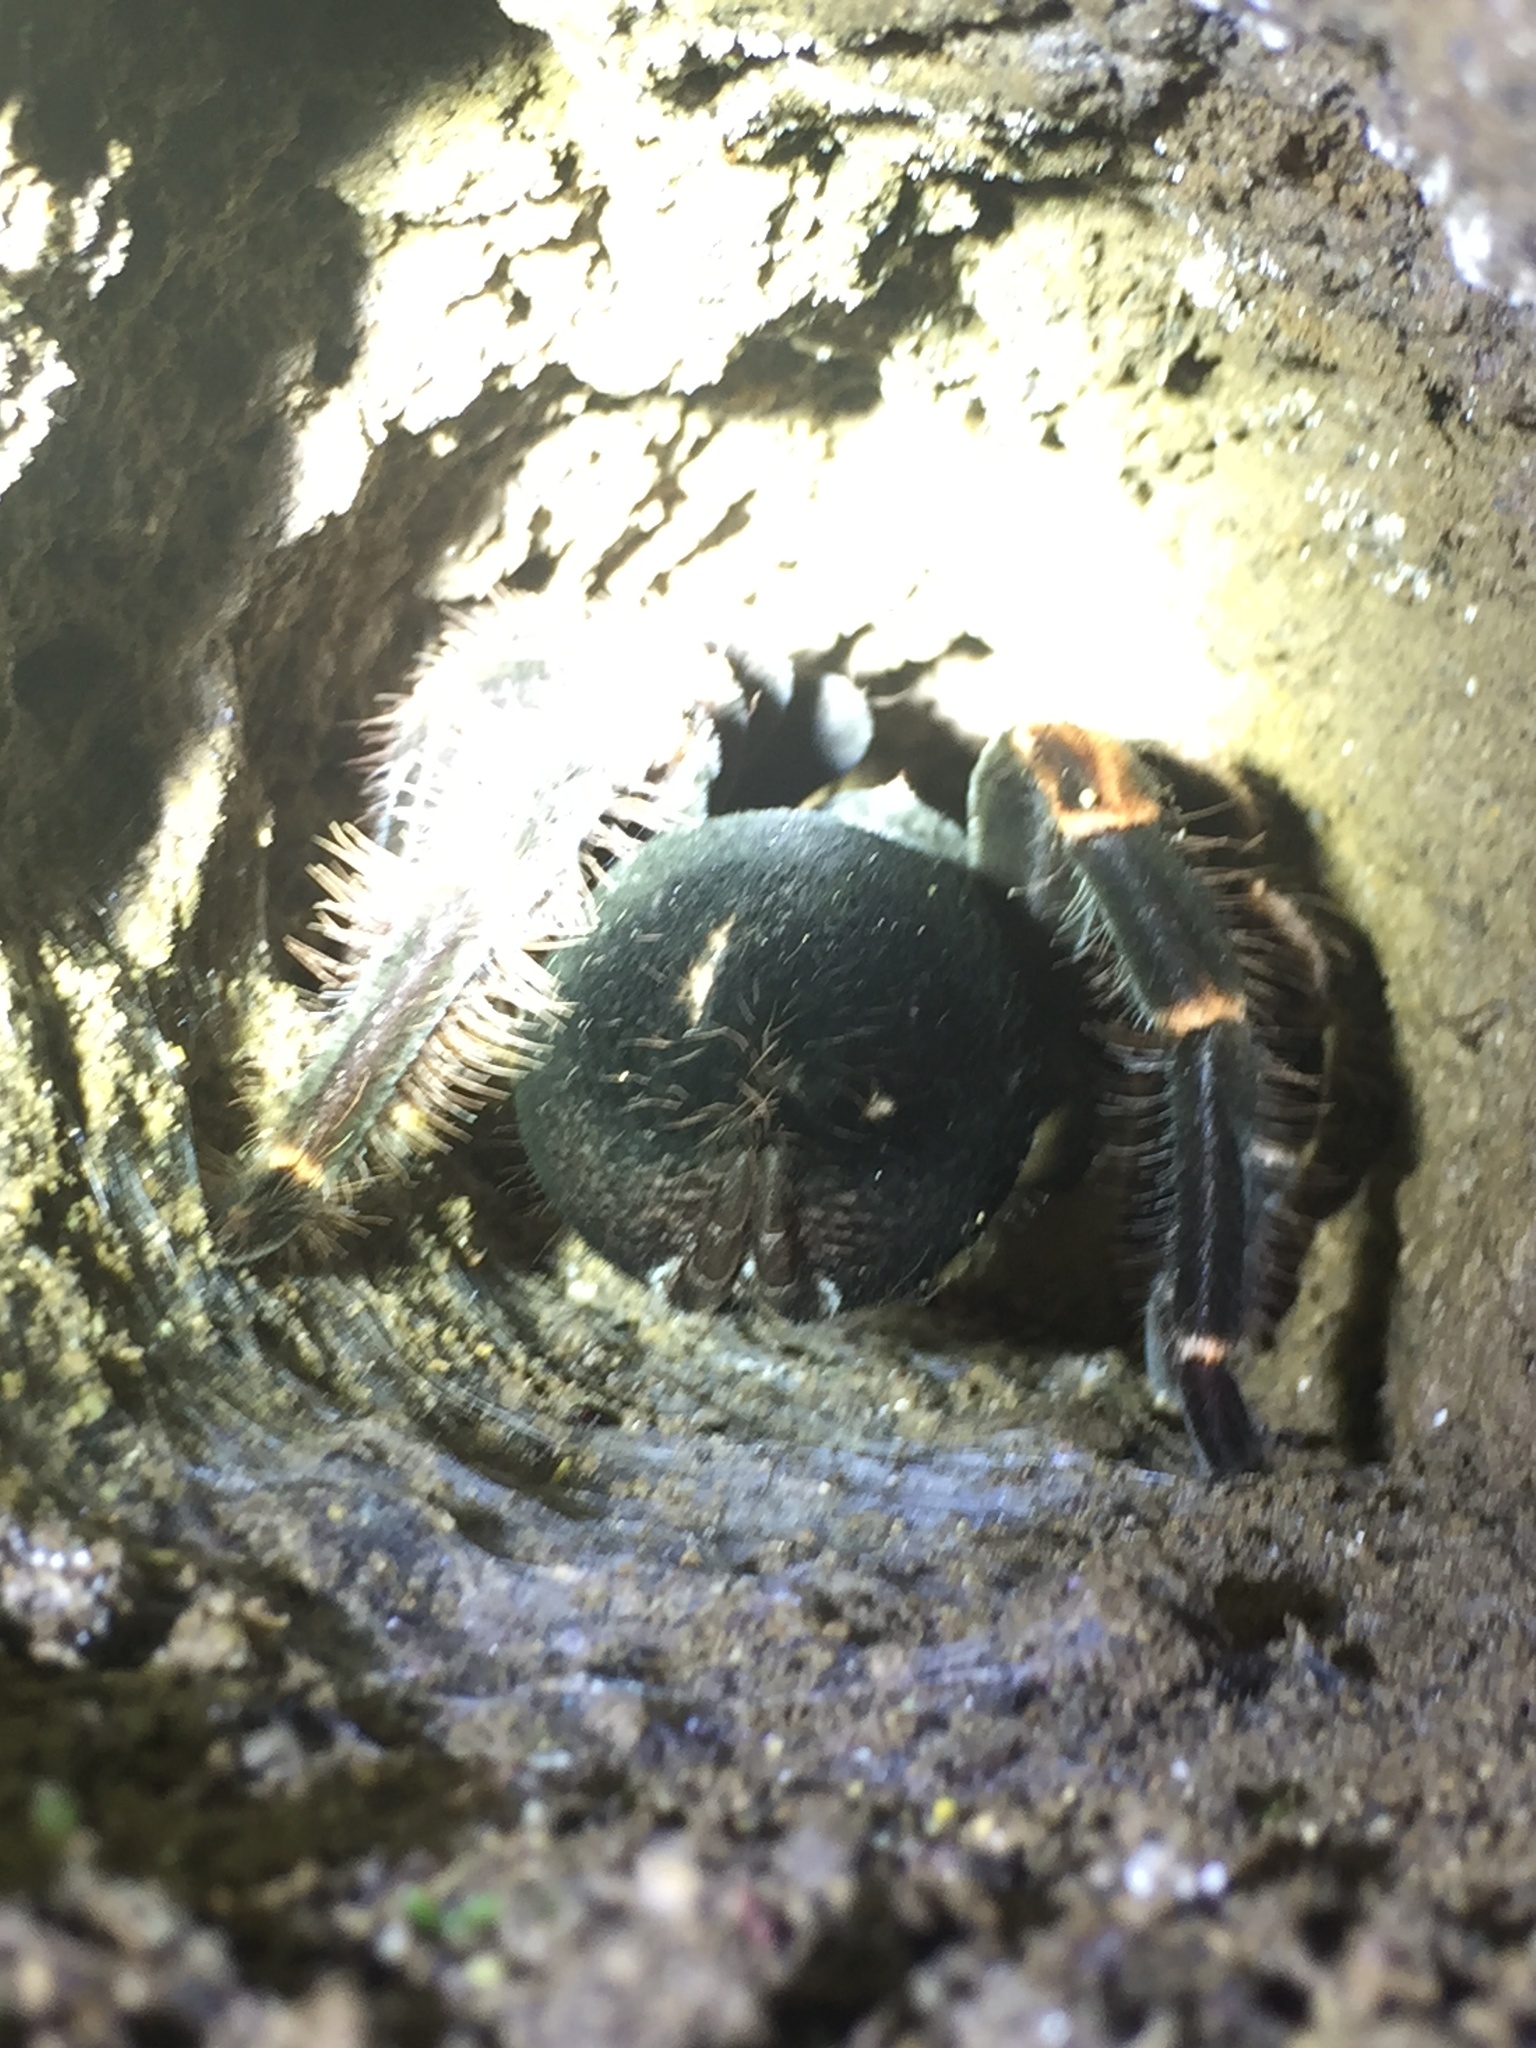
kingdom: Animalia
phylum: Arthropoda
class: Arachnida
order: Araneae
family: Theraphosidae
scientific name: Theraphosidae
